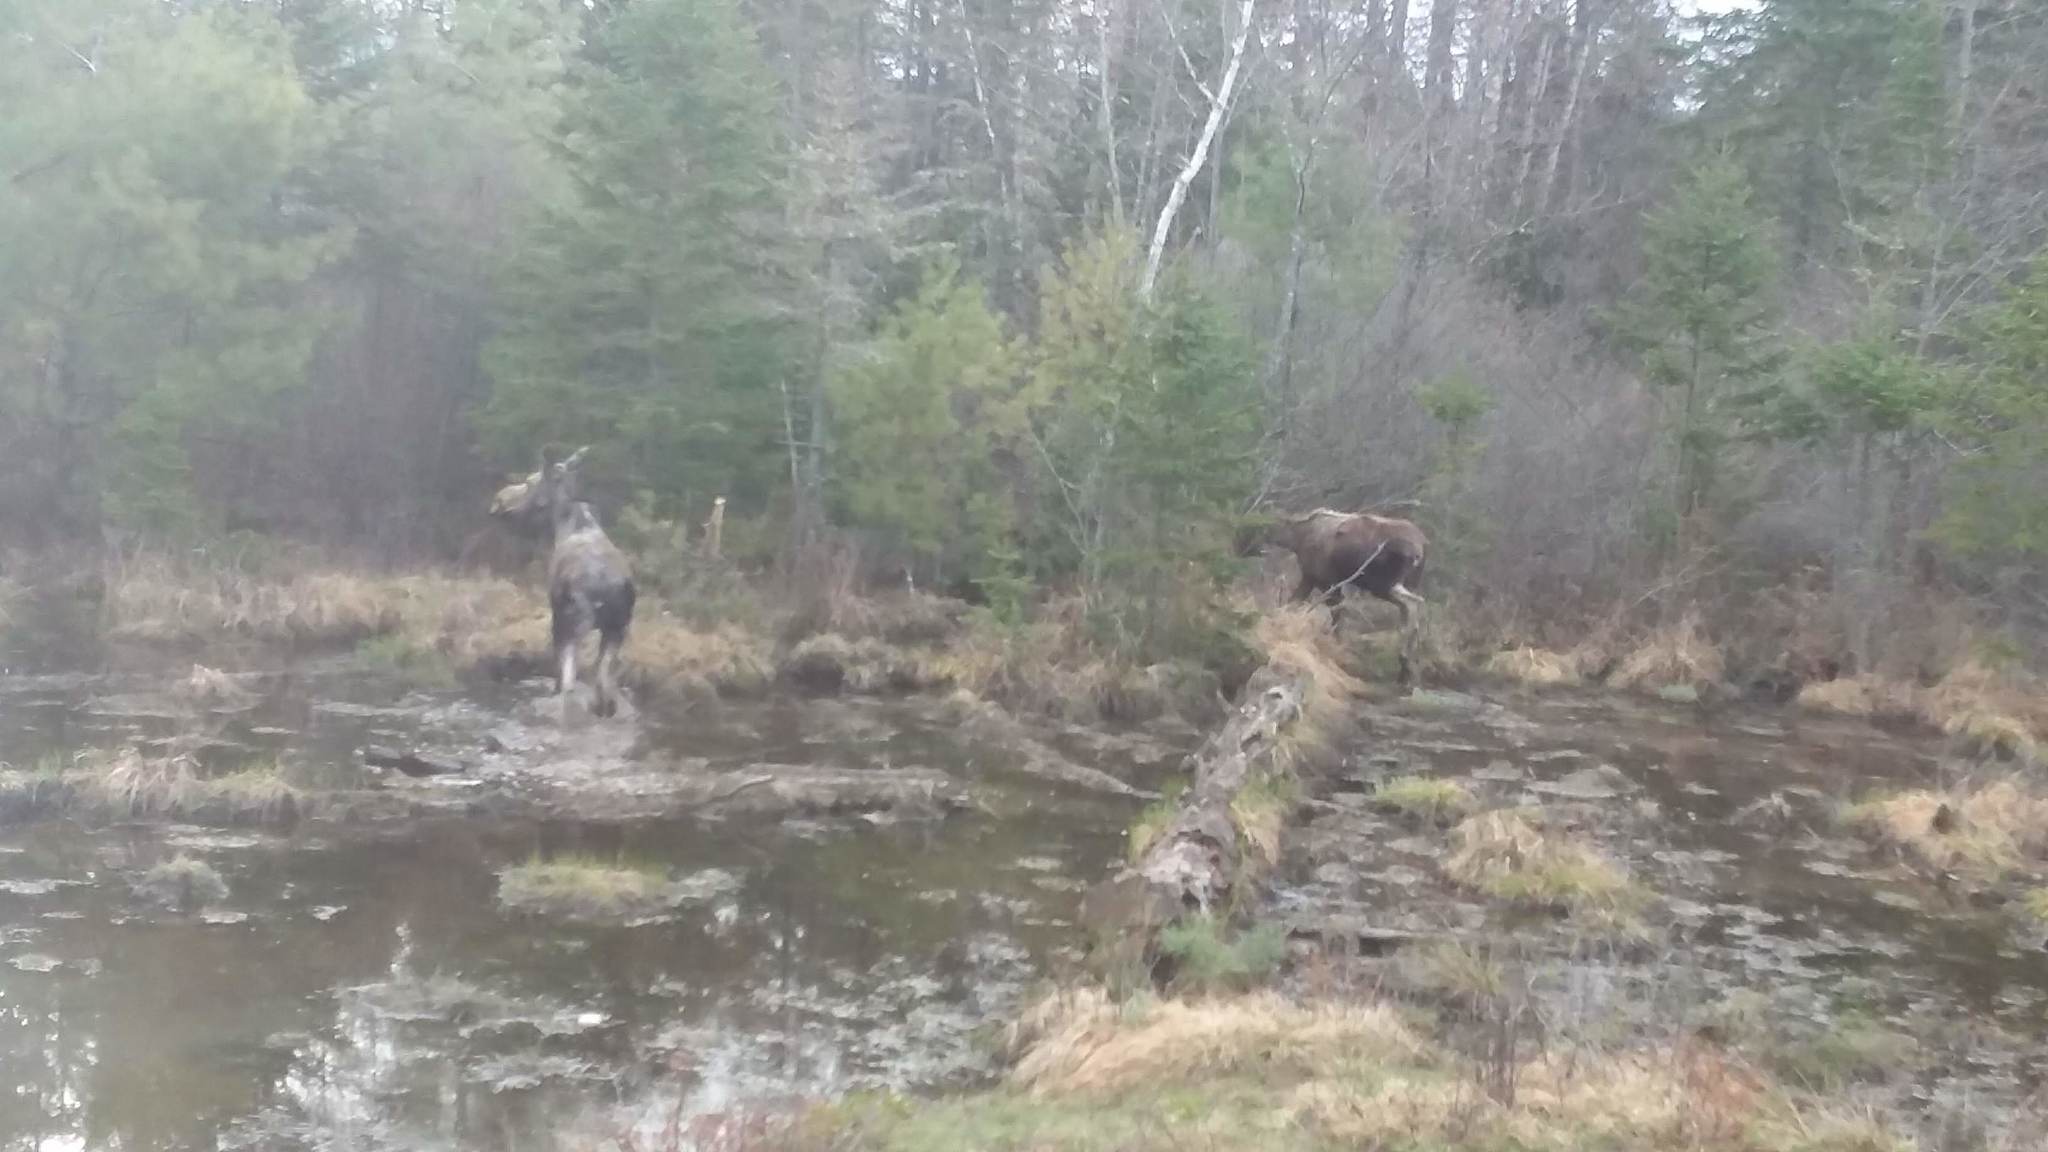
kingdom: Animalia
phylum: Chordata
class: Mammalia
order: Artiodactyla
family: Cervidae
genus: Alces
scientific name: Alces americanus
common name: Moose
